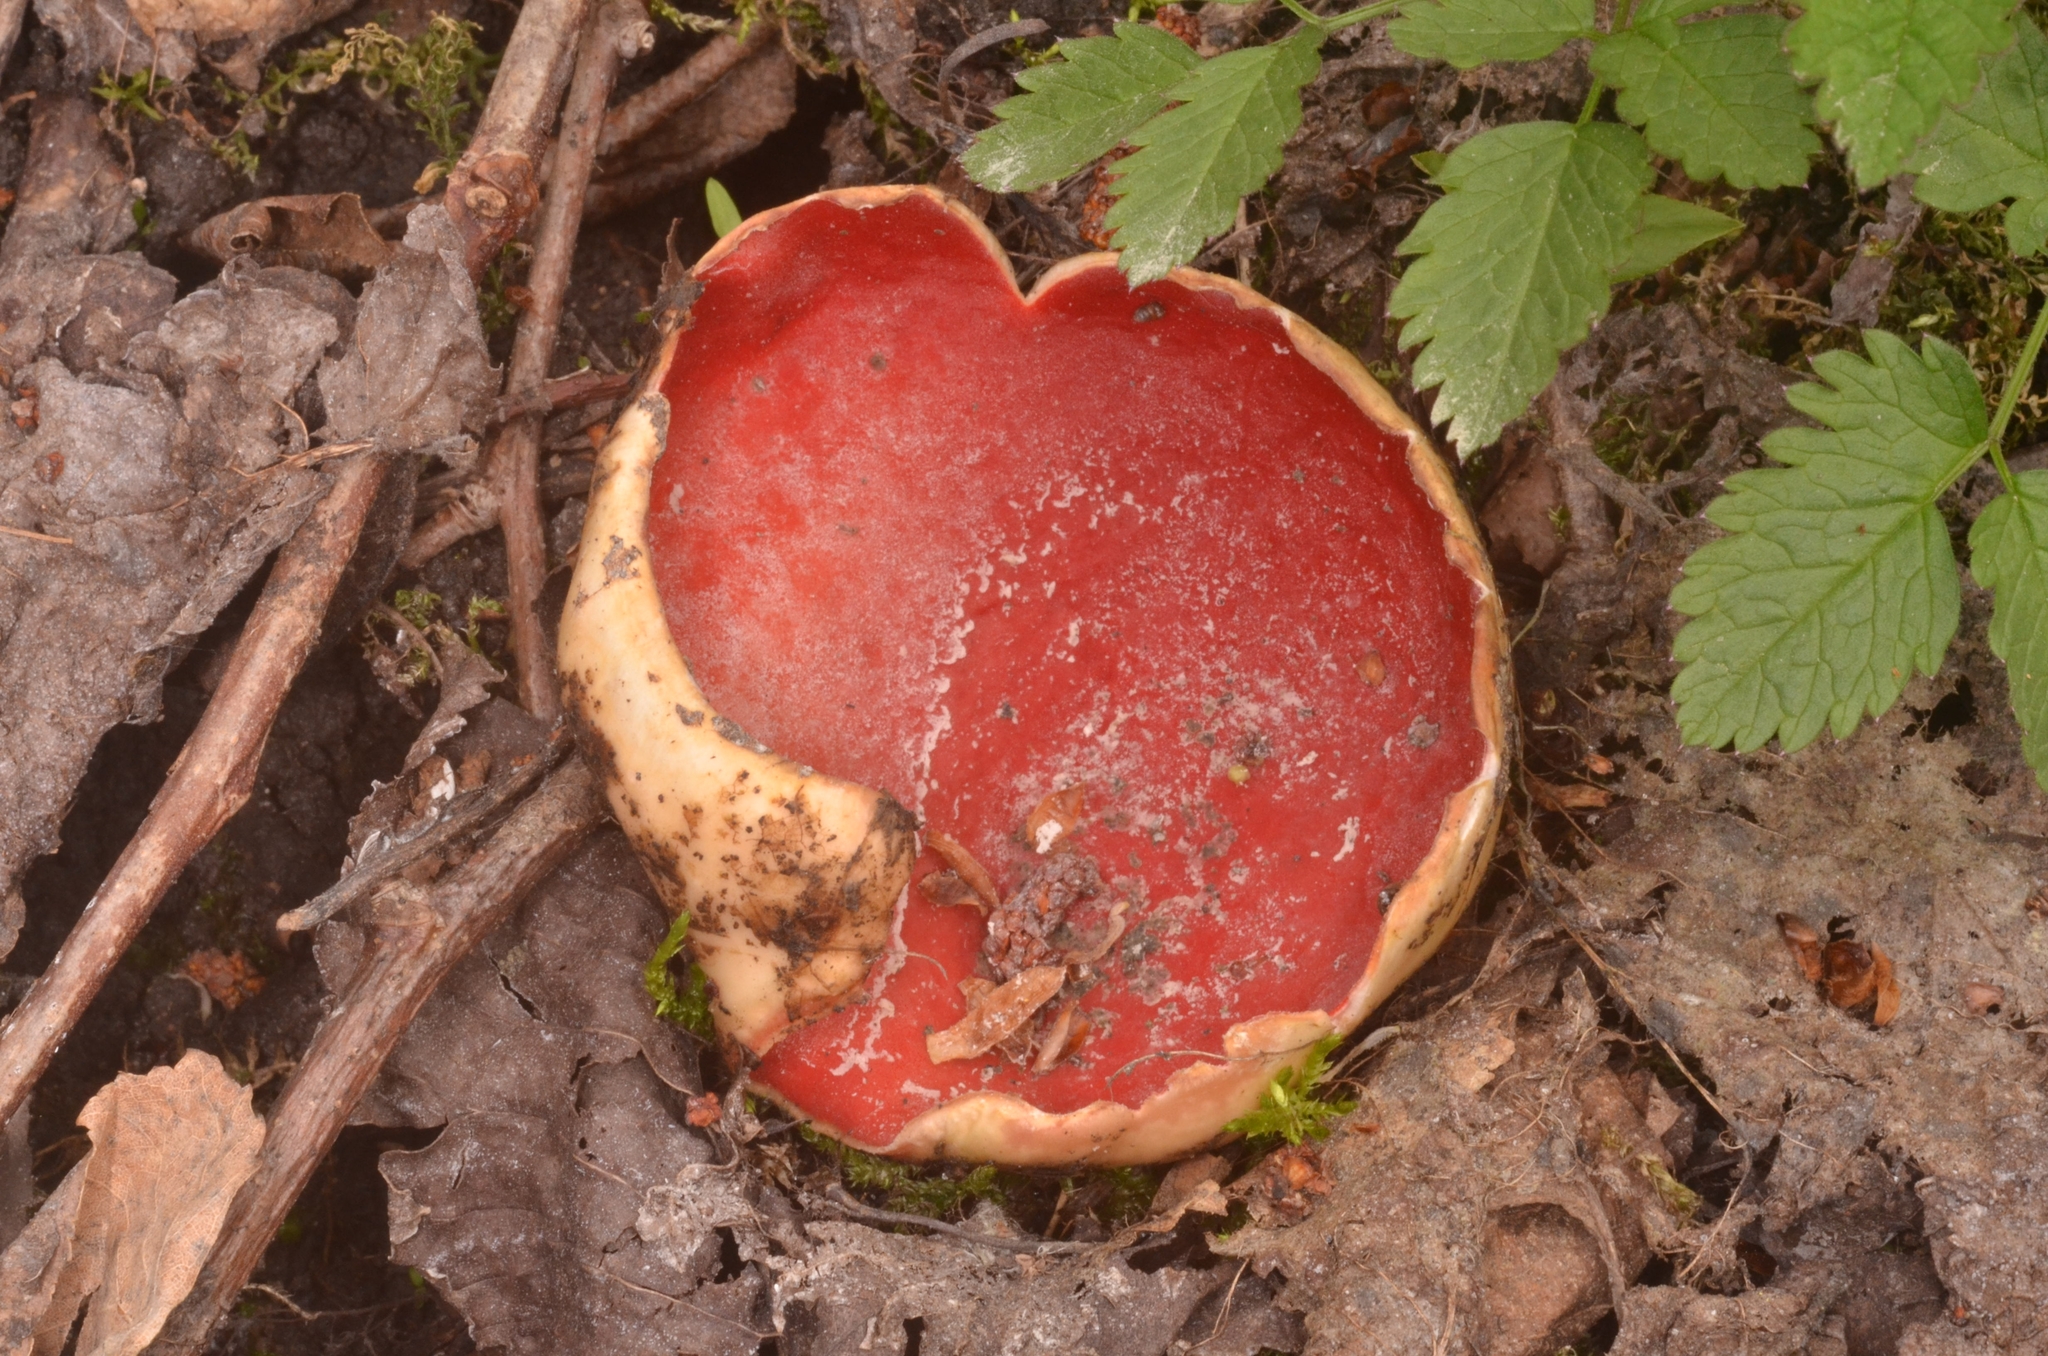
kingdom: Fungi
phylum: Ascomycota
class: Pezizomycetes
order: Pezizales
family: Sarcoscyphaceae
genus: Sarcoscypha
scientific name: Sarcoscypha austriaca
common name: Scarlet elfcup
